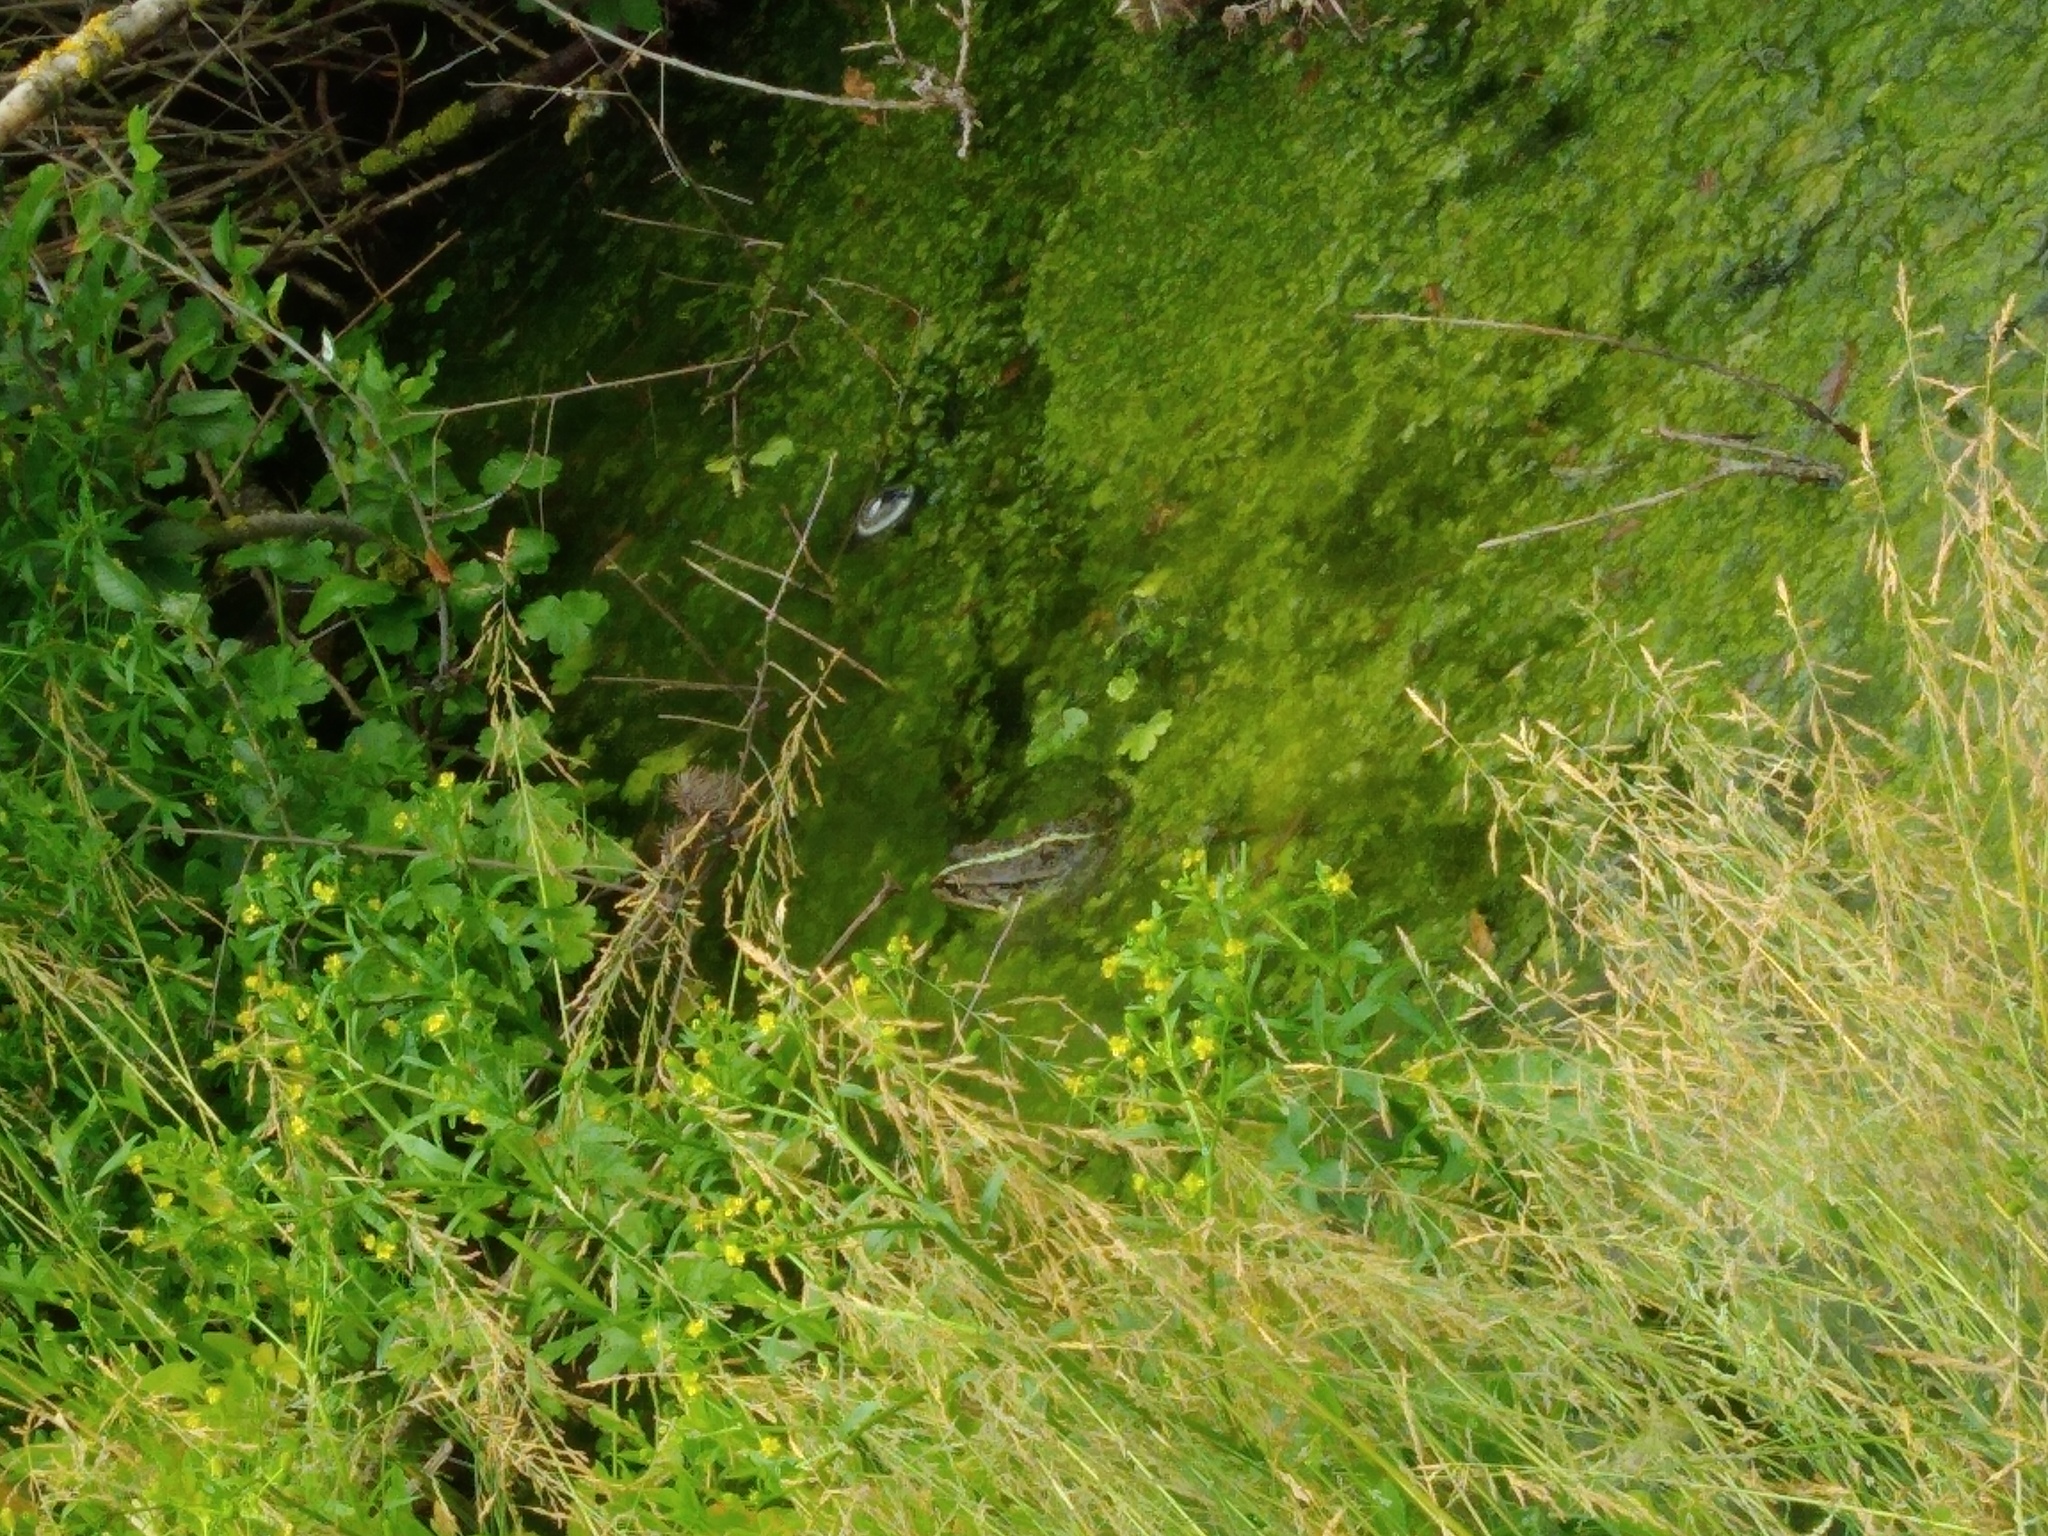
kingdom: Animalia
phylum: Chordata
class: Amphibia
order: Anura
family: Ranidae
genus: Pelophylax
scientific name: Pelophylax ridibundus
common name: Marsh frog
